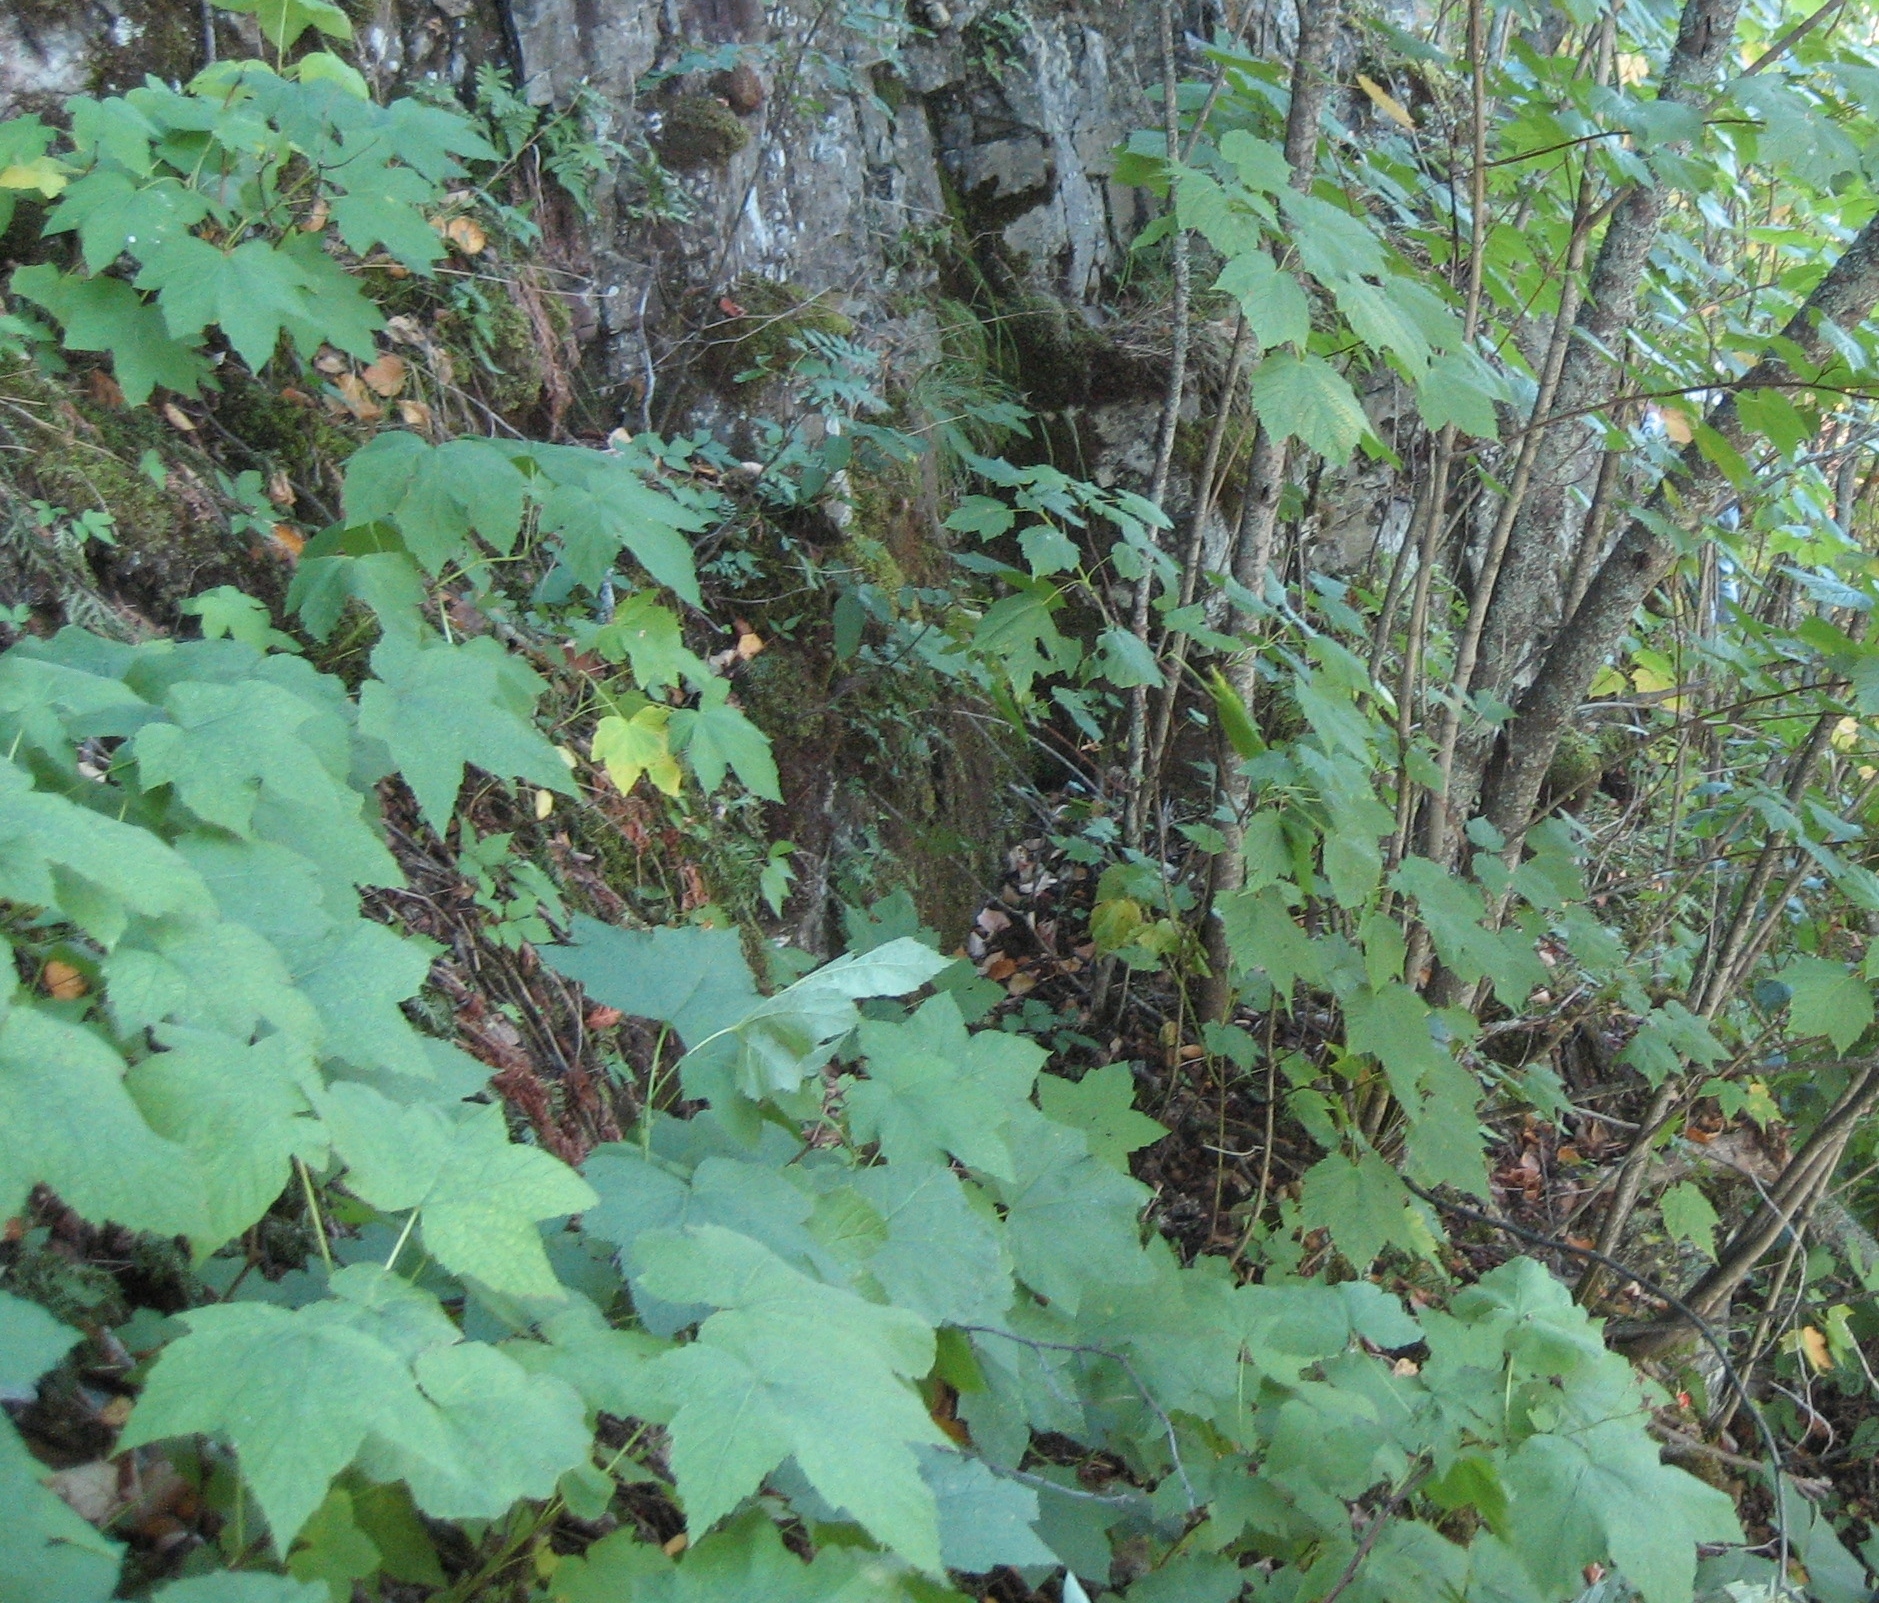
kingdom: Plantae
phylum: Tracheophyta
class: Magnoliopsida
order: Rosales
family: Rosaceae
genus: Rubus
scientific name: Rubus parviflorus
